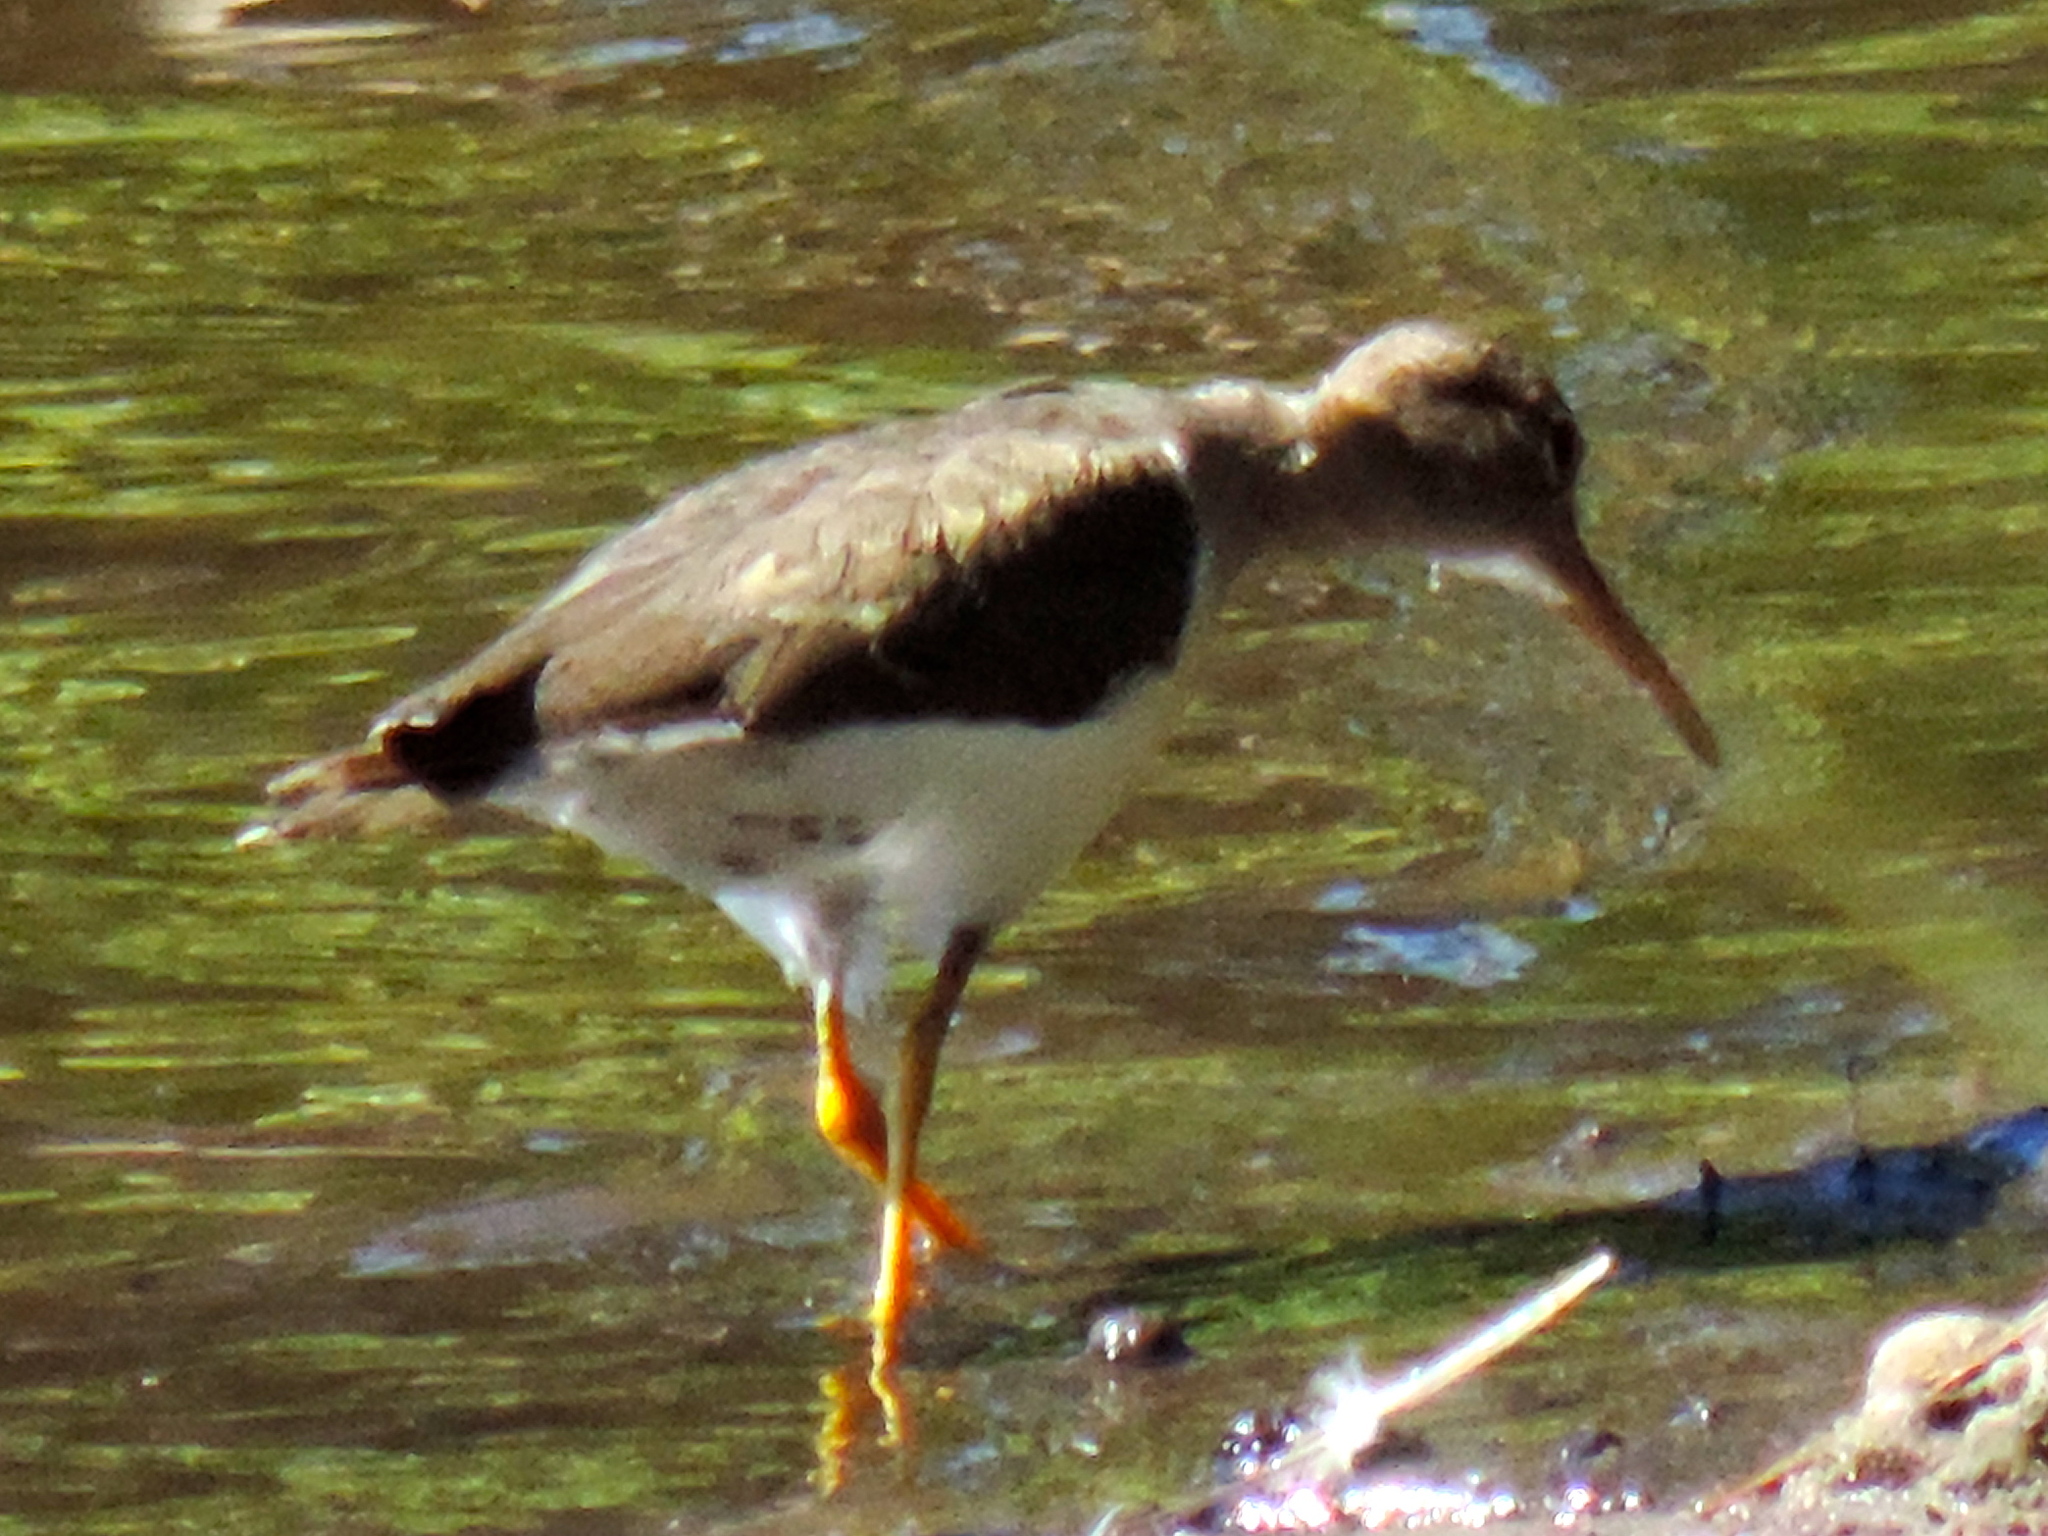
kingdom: Animalia
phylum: Chordata
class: Aves
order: Charadriiformes
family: Scolopacidae
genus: Actitis
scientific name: Actitis macularius
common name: Spotted sandpiper
